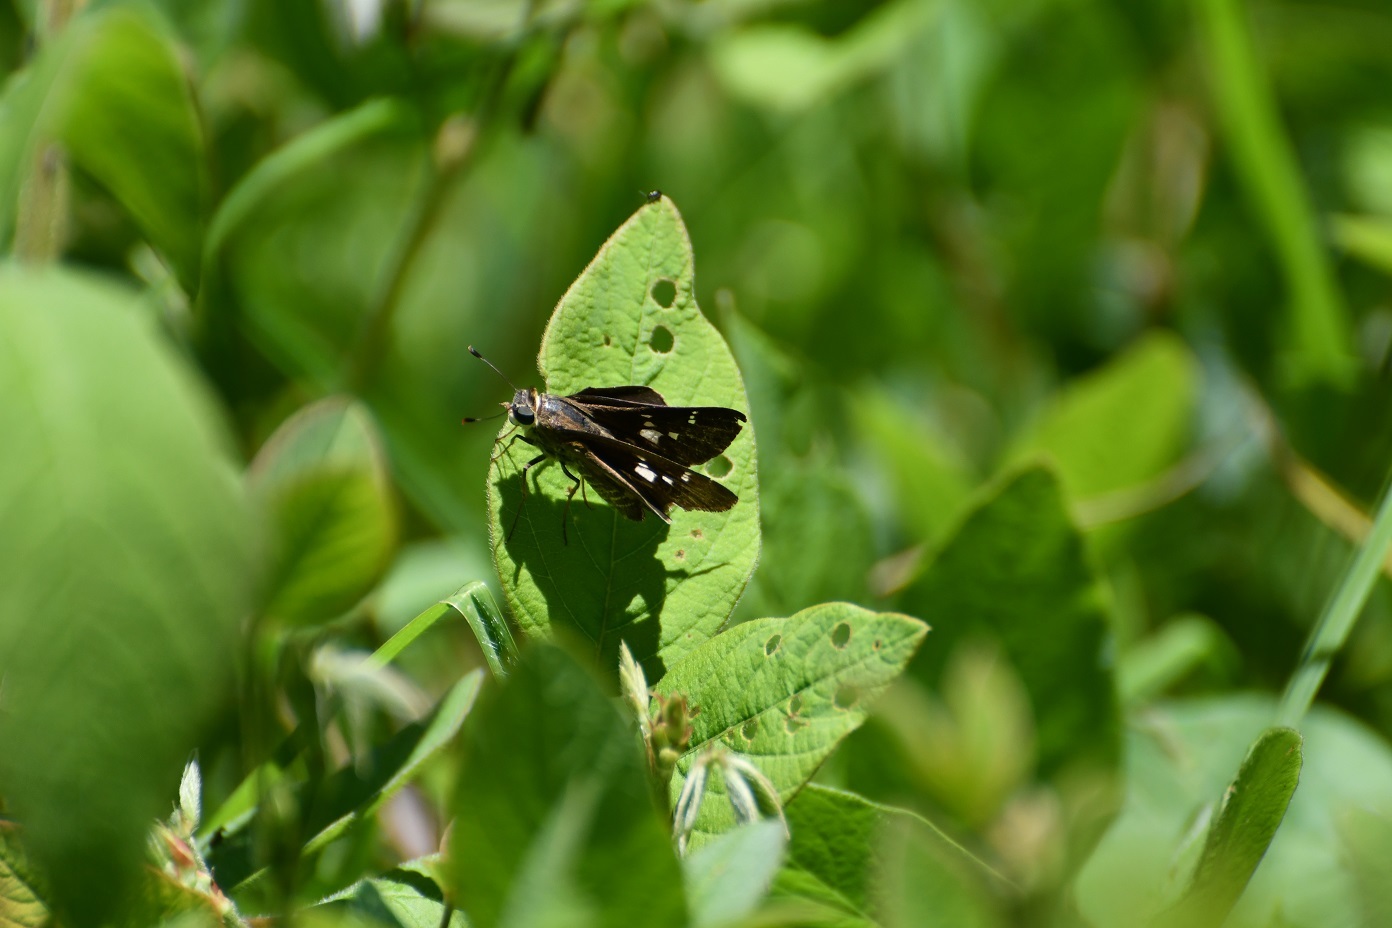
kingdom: Animalia
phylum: Arthropoda
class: Insecta
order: Lepidoptera
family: Hesperiidae
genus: Nyctelius
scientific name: Nyctelius nyctelius
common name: Violet-banded skipper
